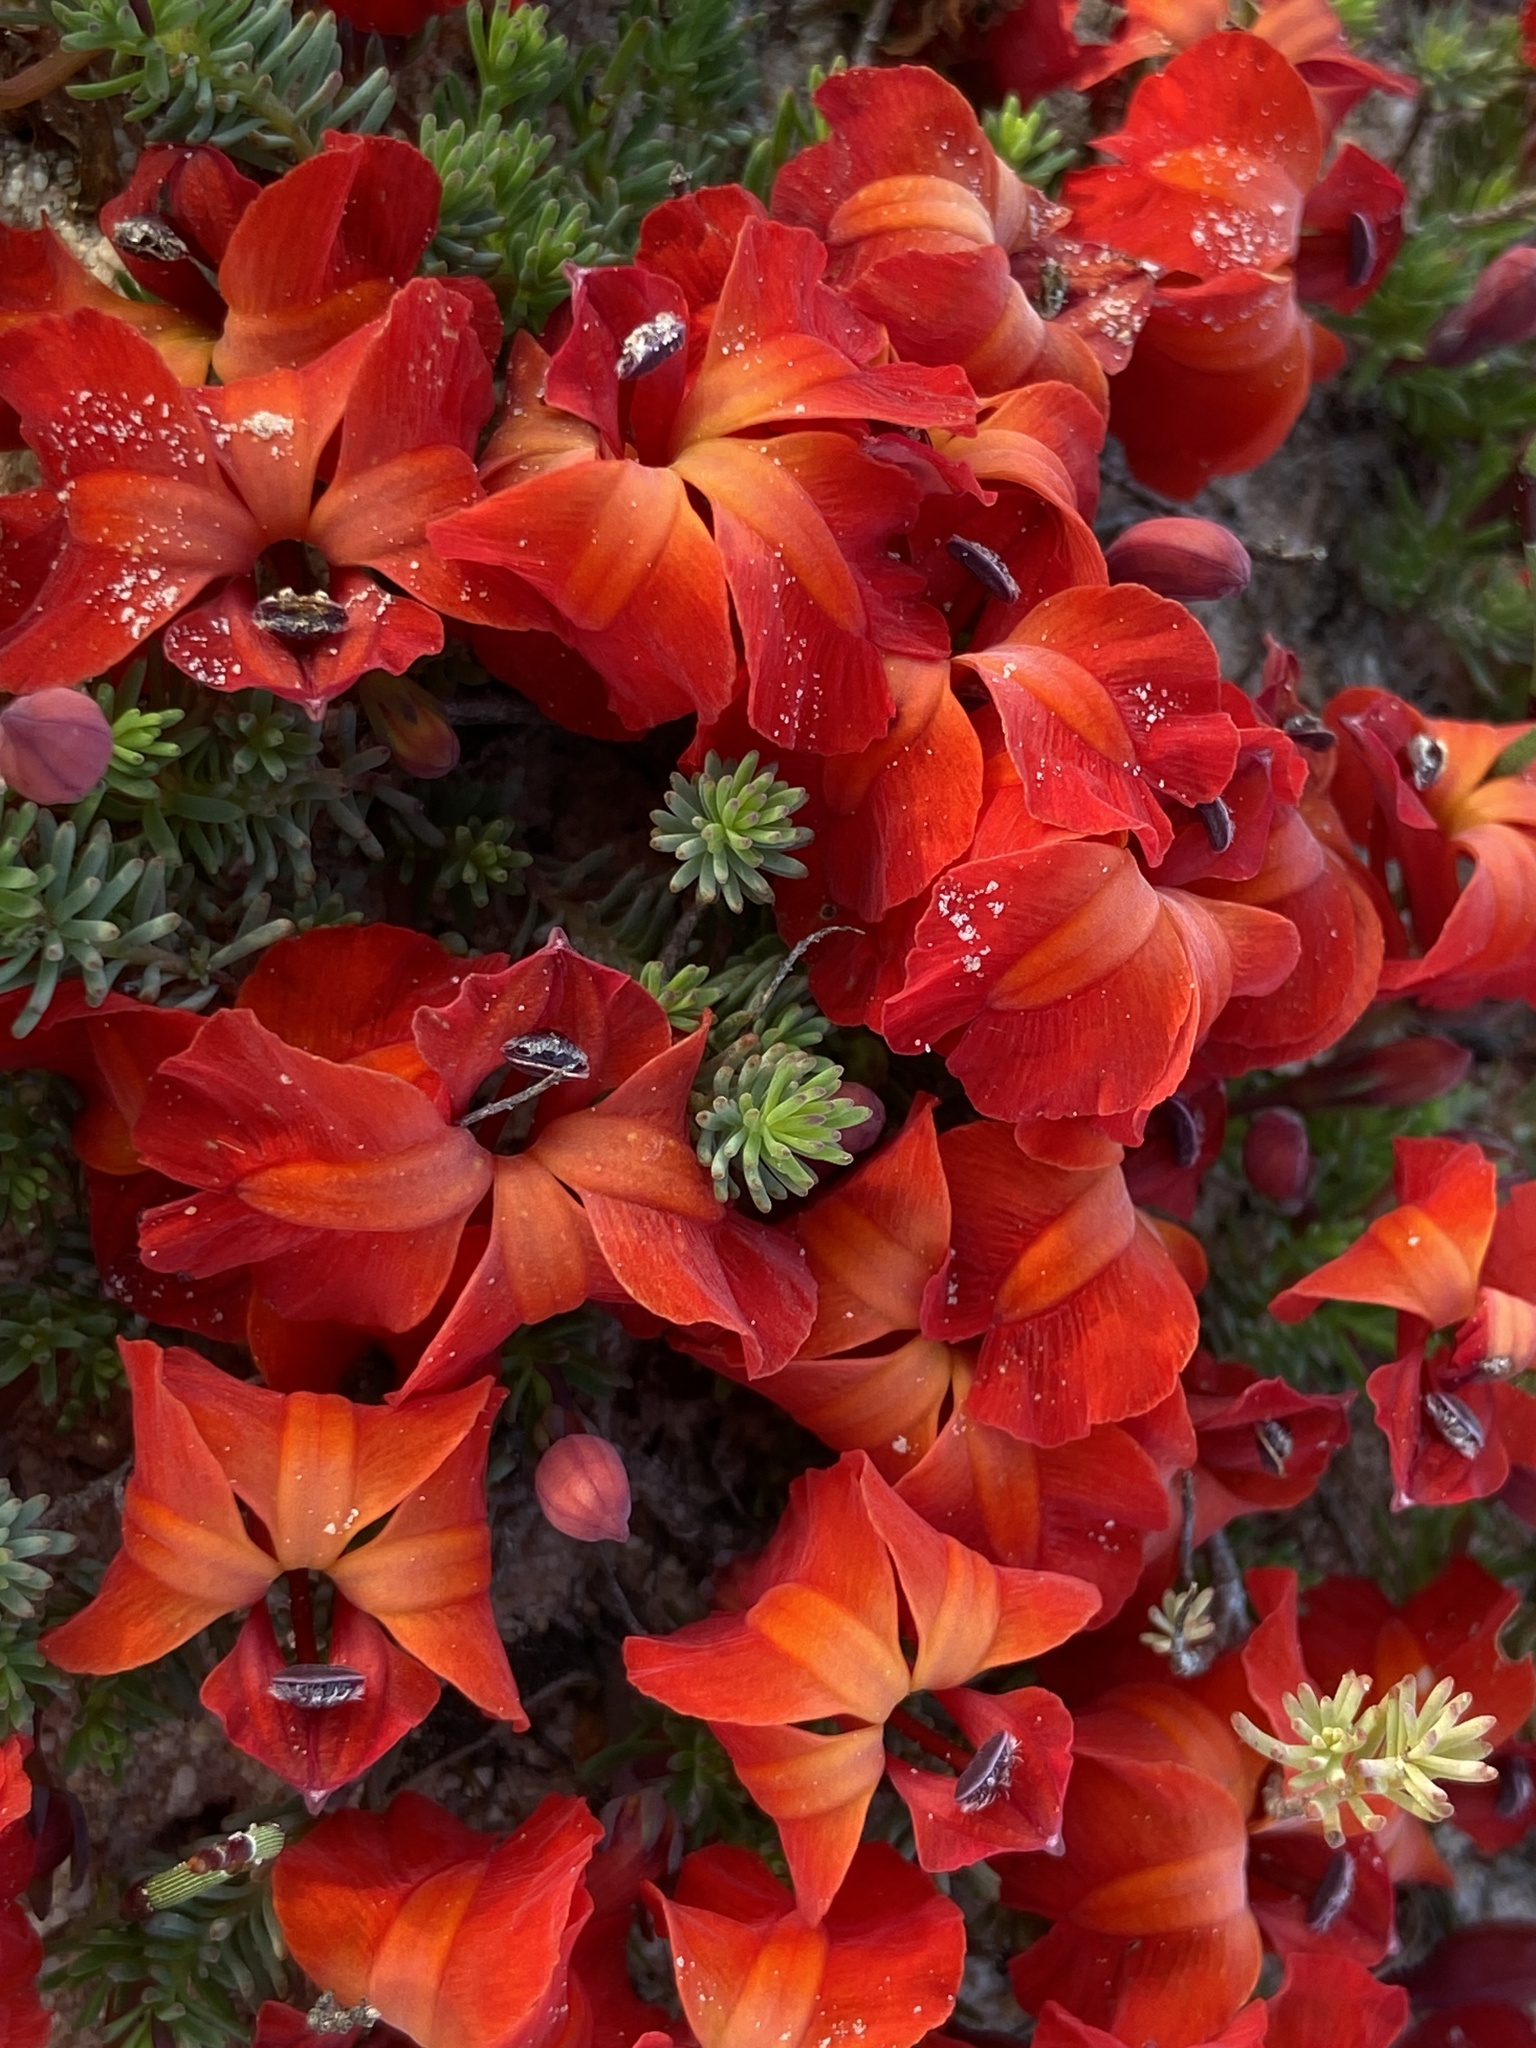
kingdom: Plantae
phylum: Tracheophyta
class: Magnoliopsida
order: Asterales
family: Goodeniaceae
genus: Lechenaultia
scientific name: Lechenaultia formosa
